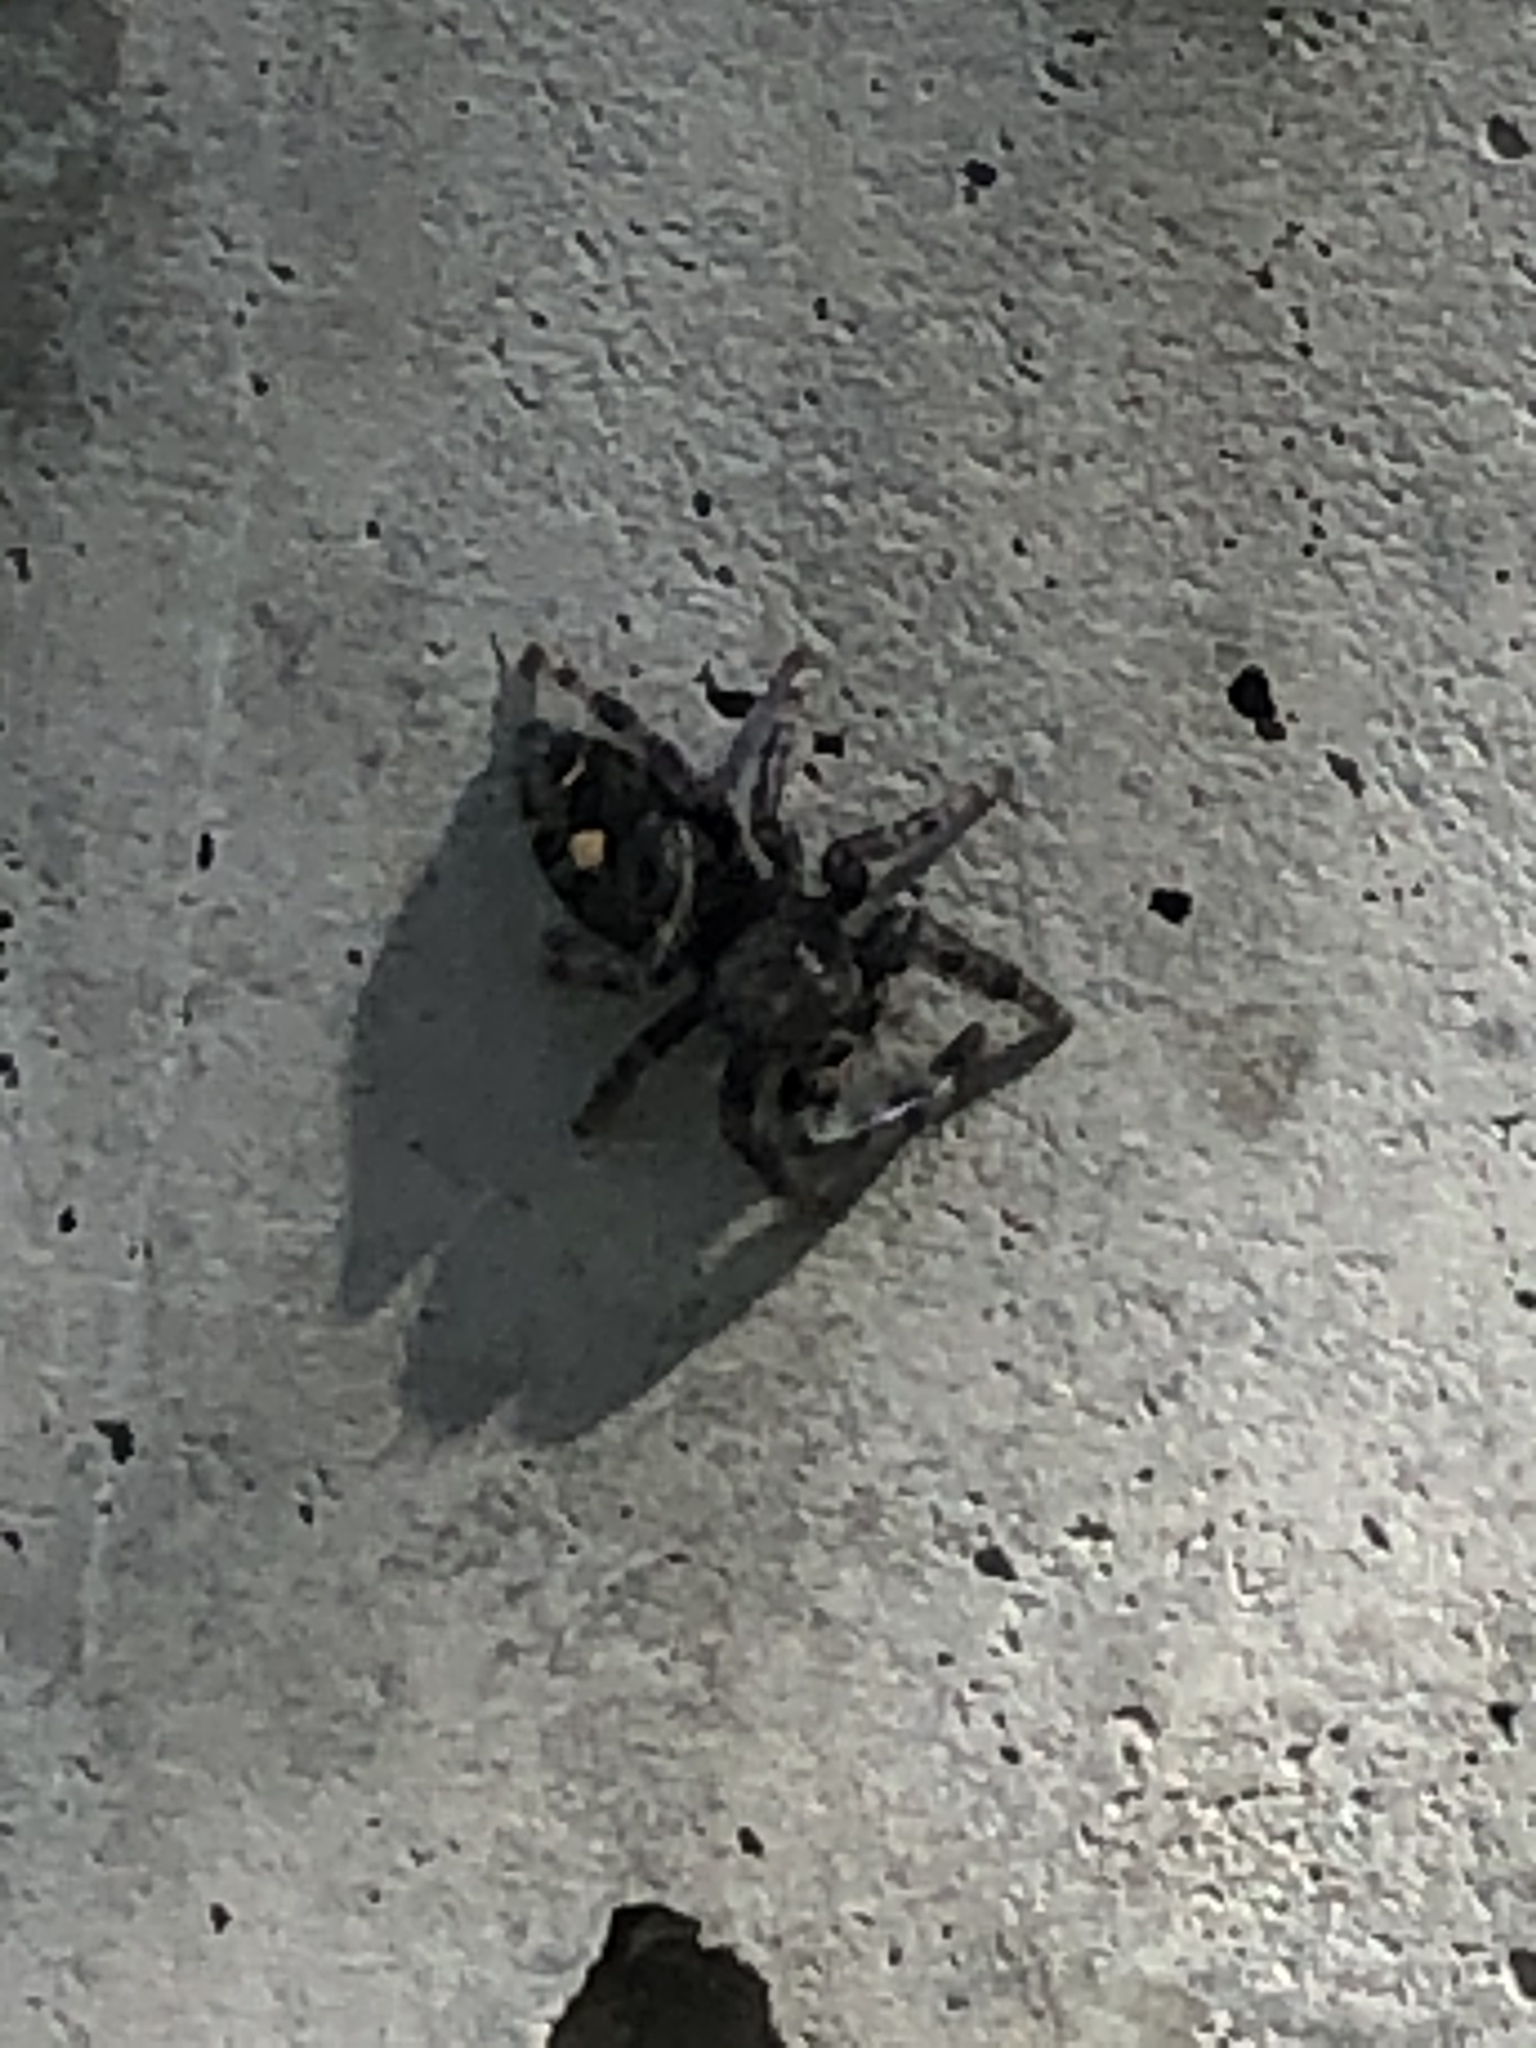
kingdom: Animalia
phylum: Arthropoda
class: Arachnida
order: Araneae
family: Salticidae
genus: Phidippus
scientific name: Phidippus audax
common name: Bold jumper
